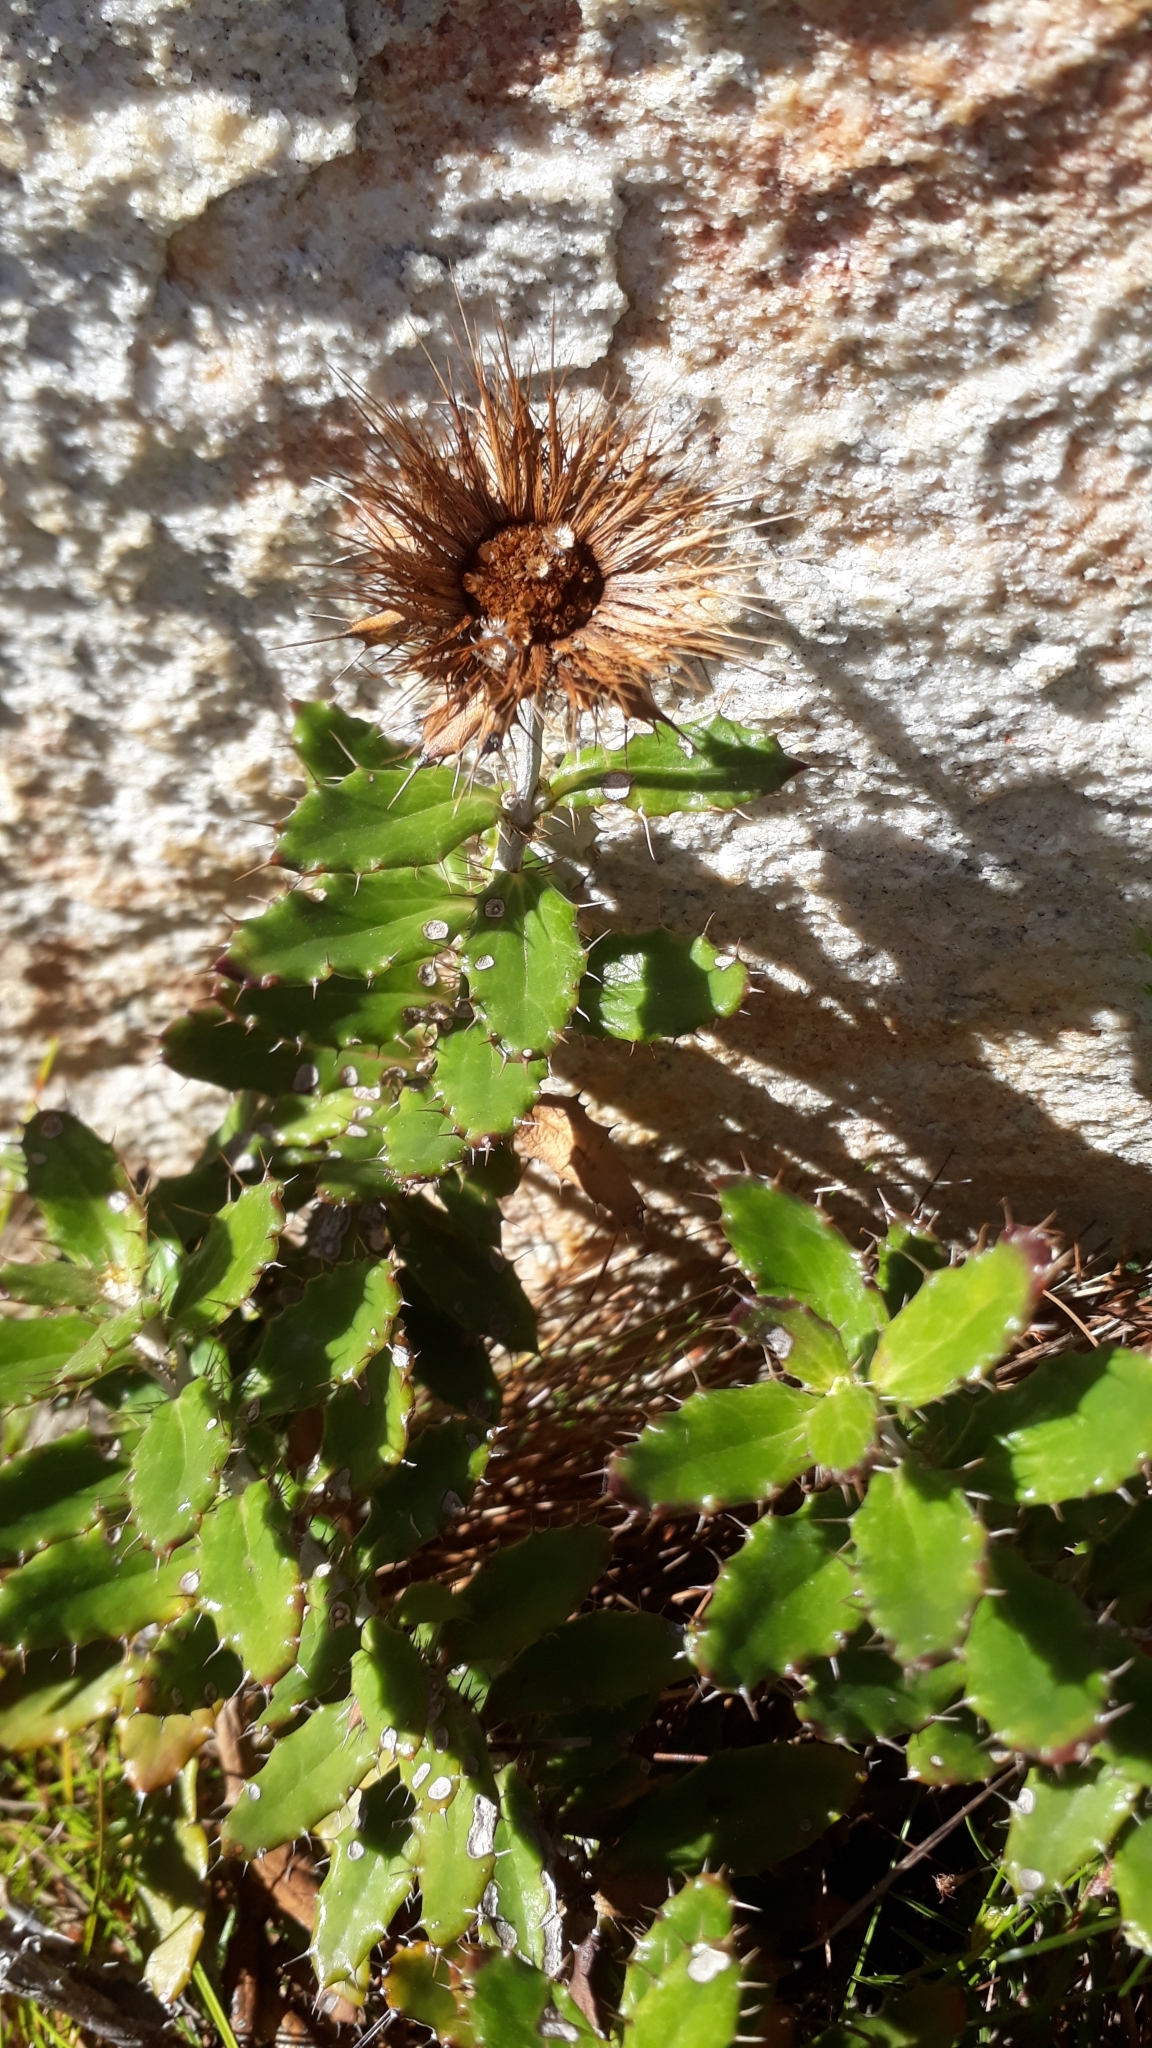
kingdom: Plantae
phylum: Tracheophyta
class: Magnoliopsida
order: Asterales
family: Asteraceae
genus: Berkheya
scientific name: Berkheya barbata
